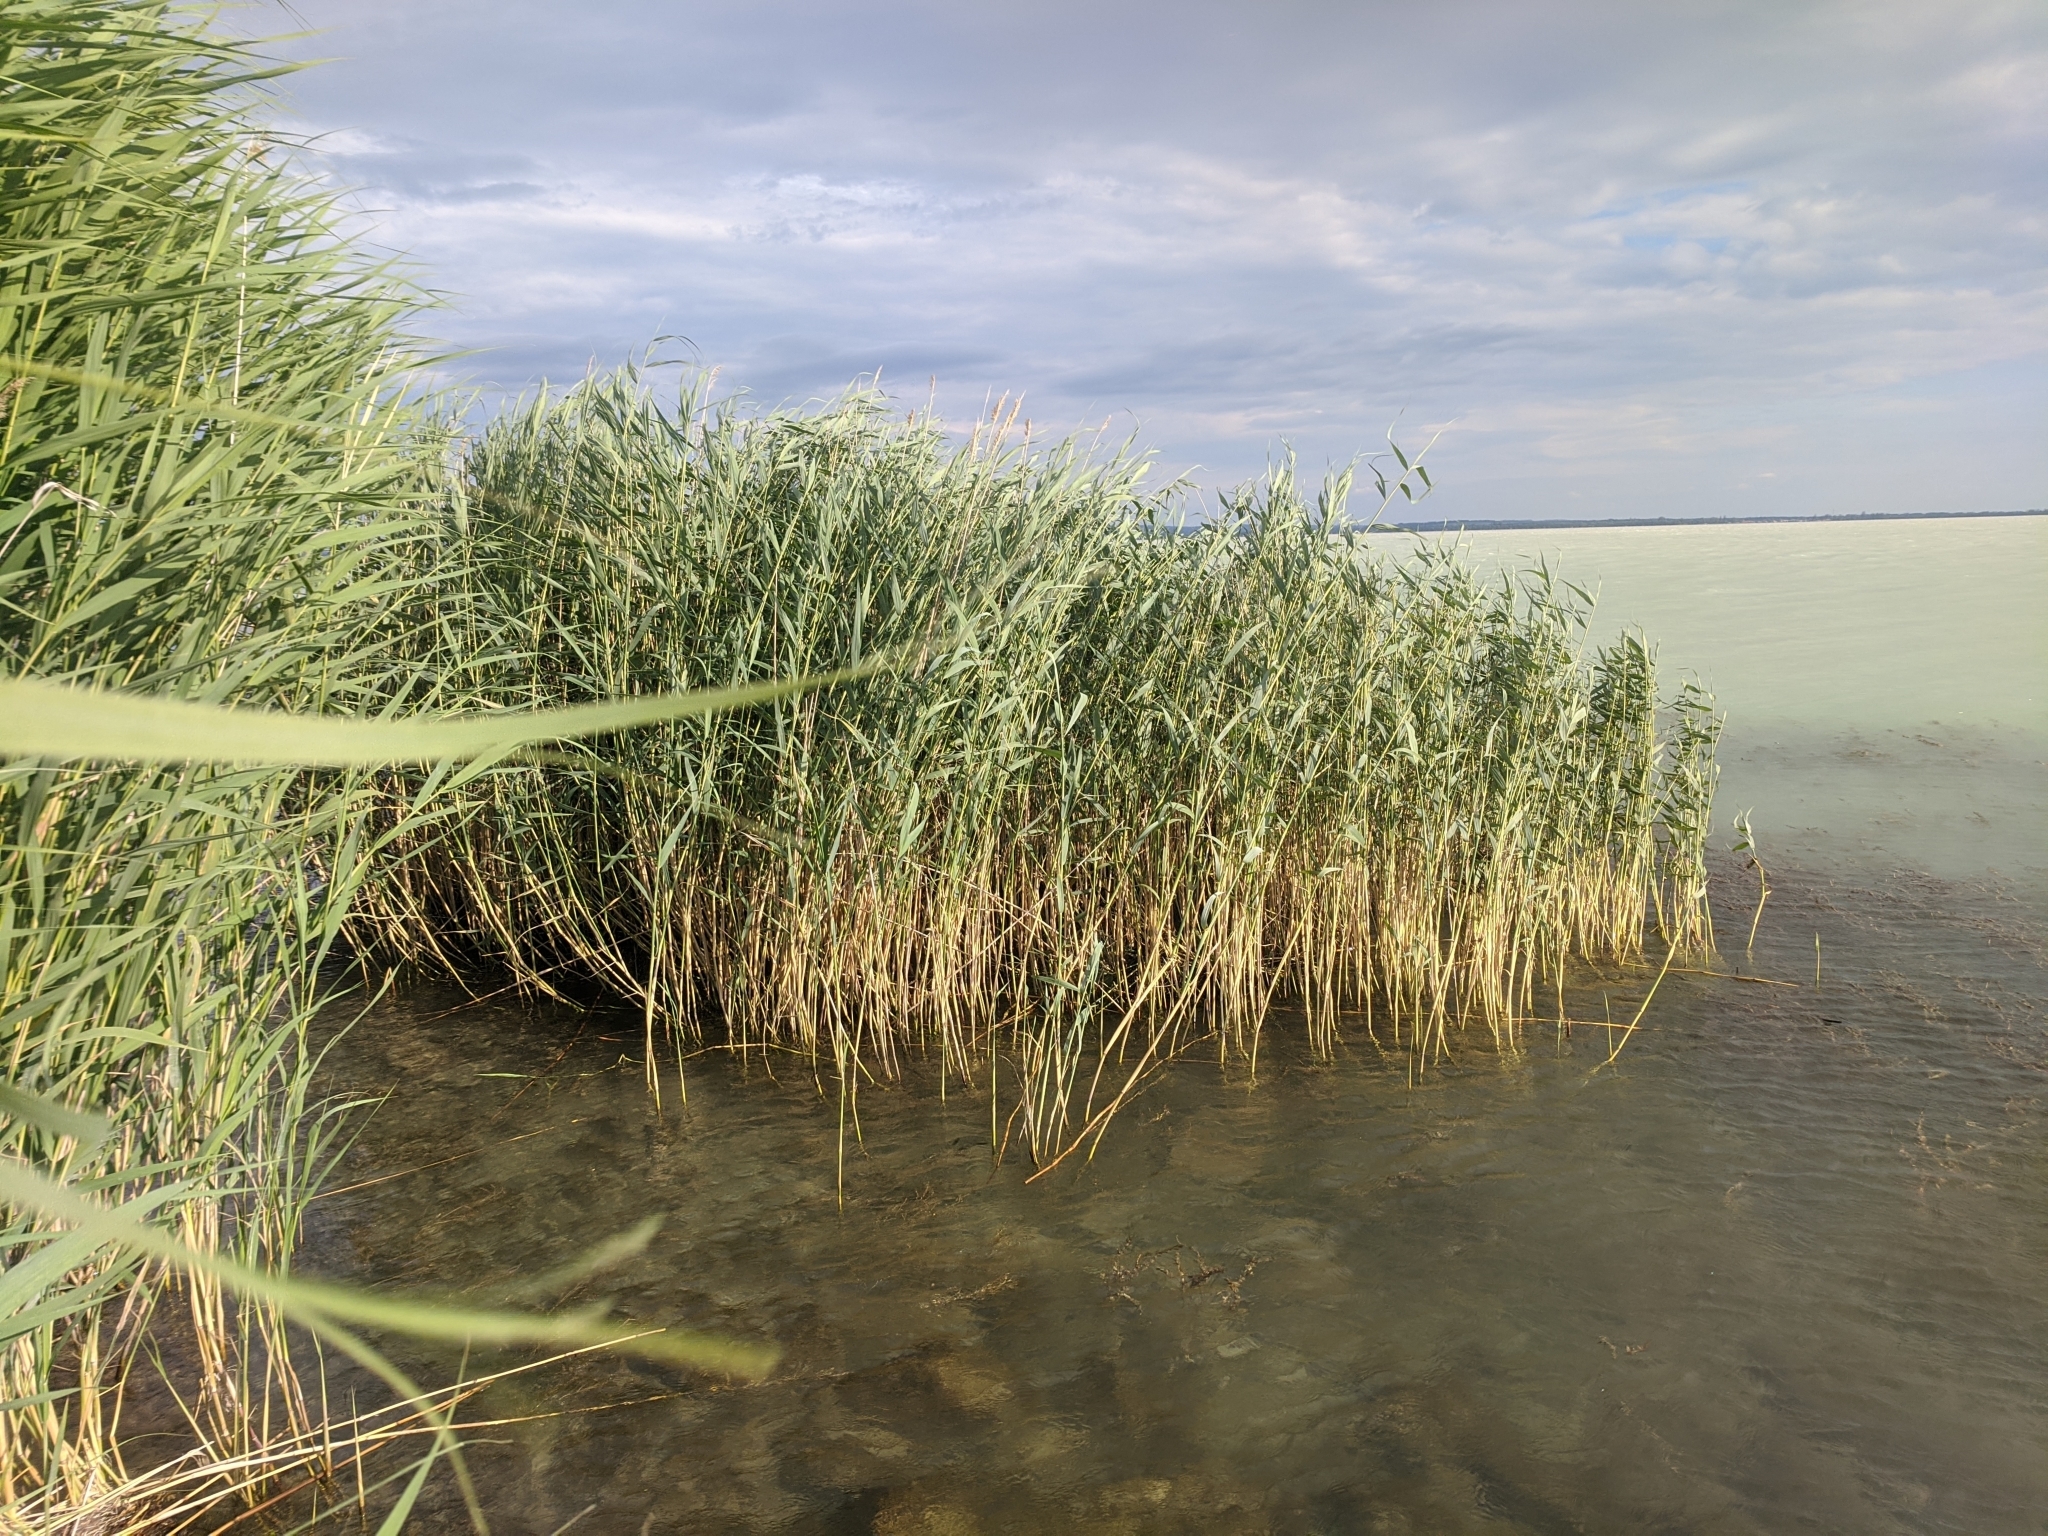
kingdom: Plantae
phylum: Tracheophyta
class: Liliopsida
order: Poales
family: Poaceae
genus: Phragmites
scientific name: Phragmites australis
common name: Common reed
